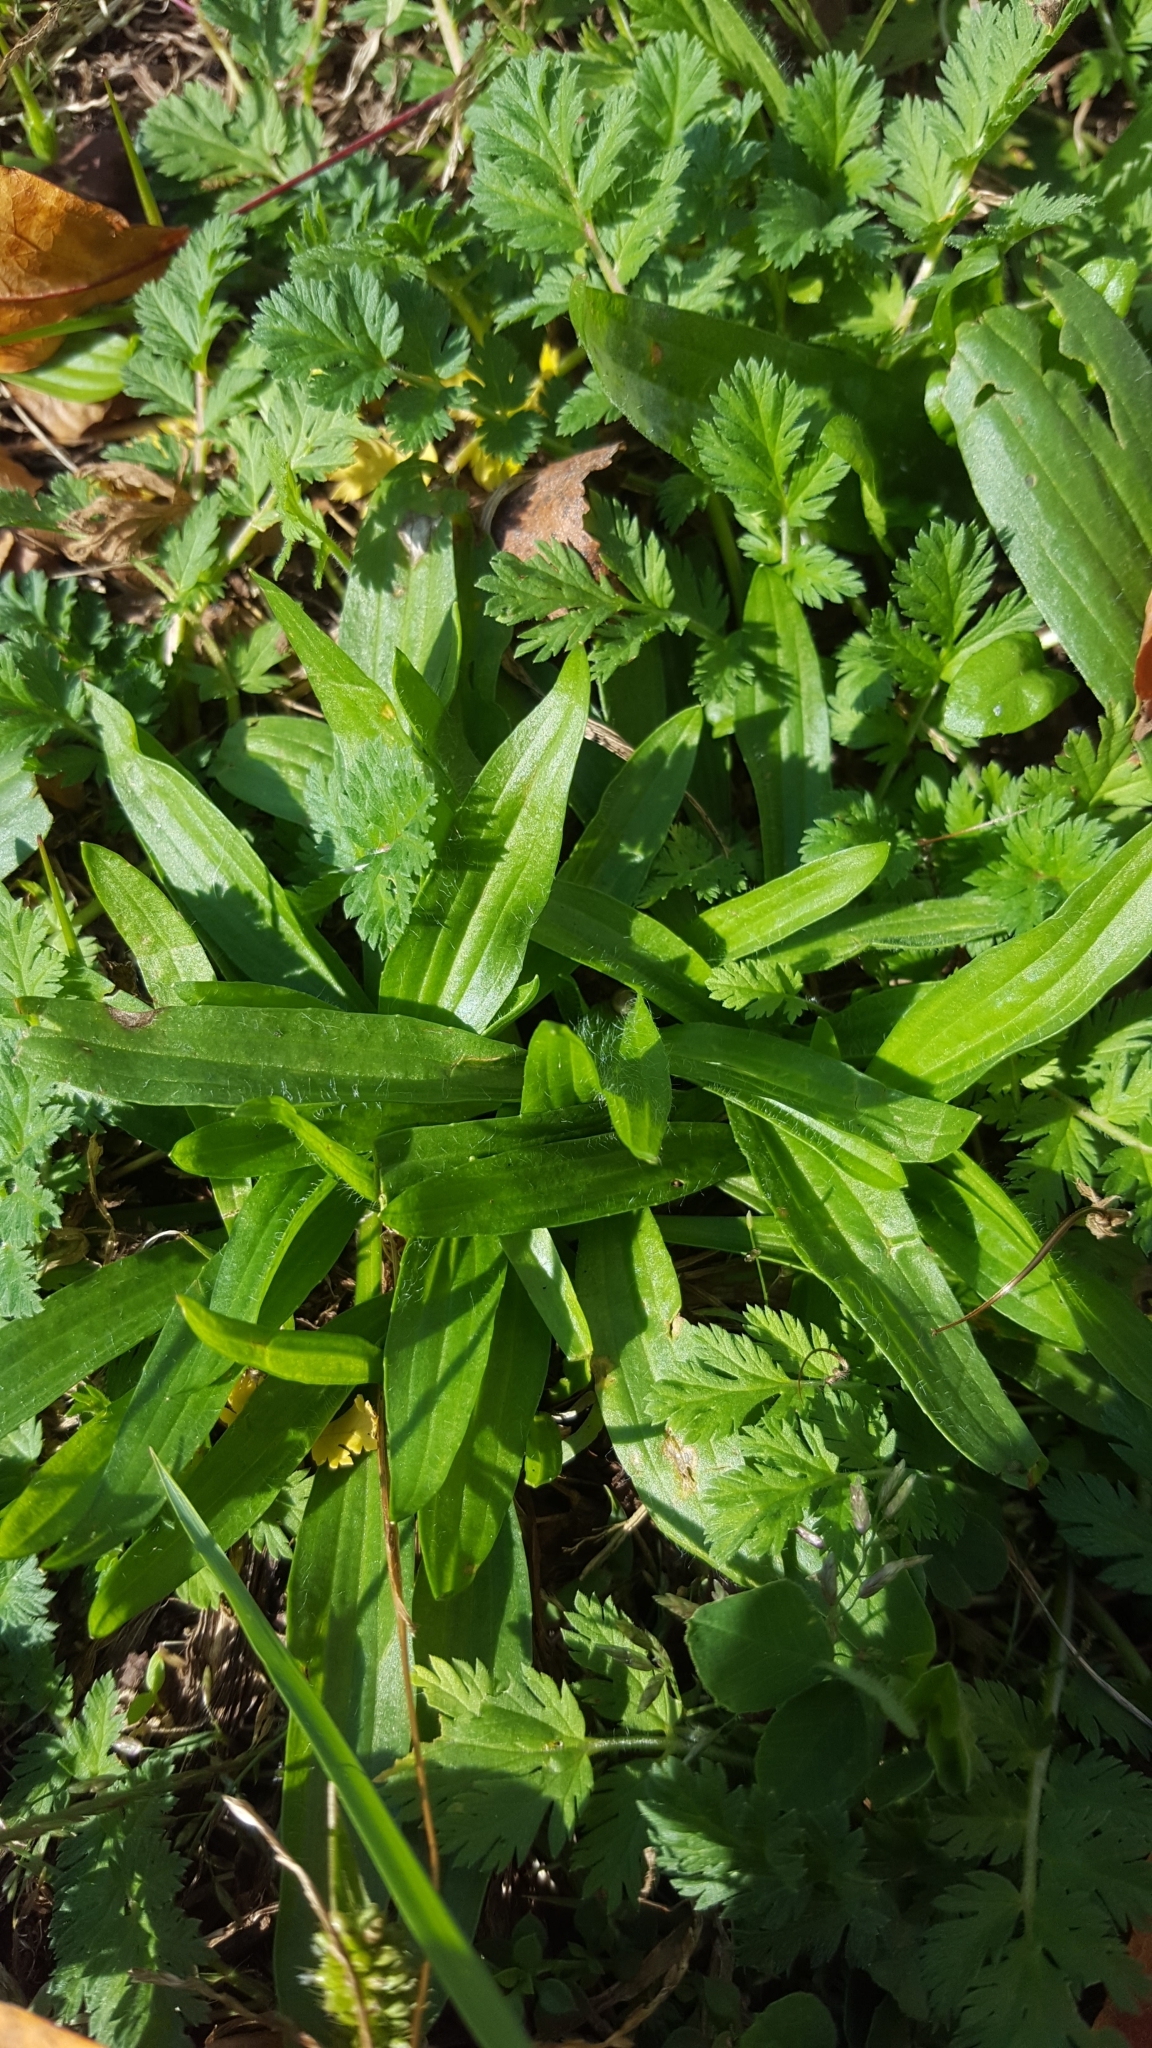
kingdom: Plantae
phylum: Tracheophyta
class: Magnoliopsida
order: Lamiales
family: Plantaginaceae
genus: Plantago
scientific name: Plantago lanceolata
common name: Ribwort plantain
